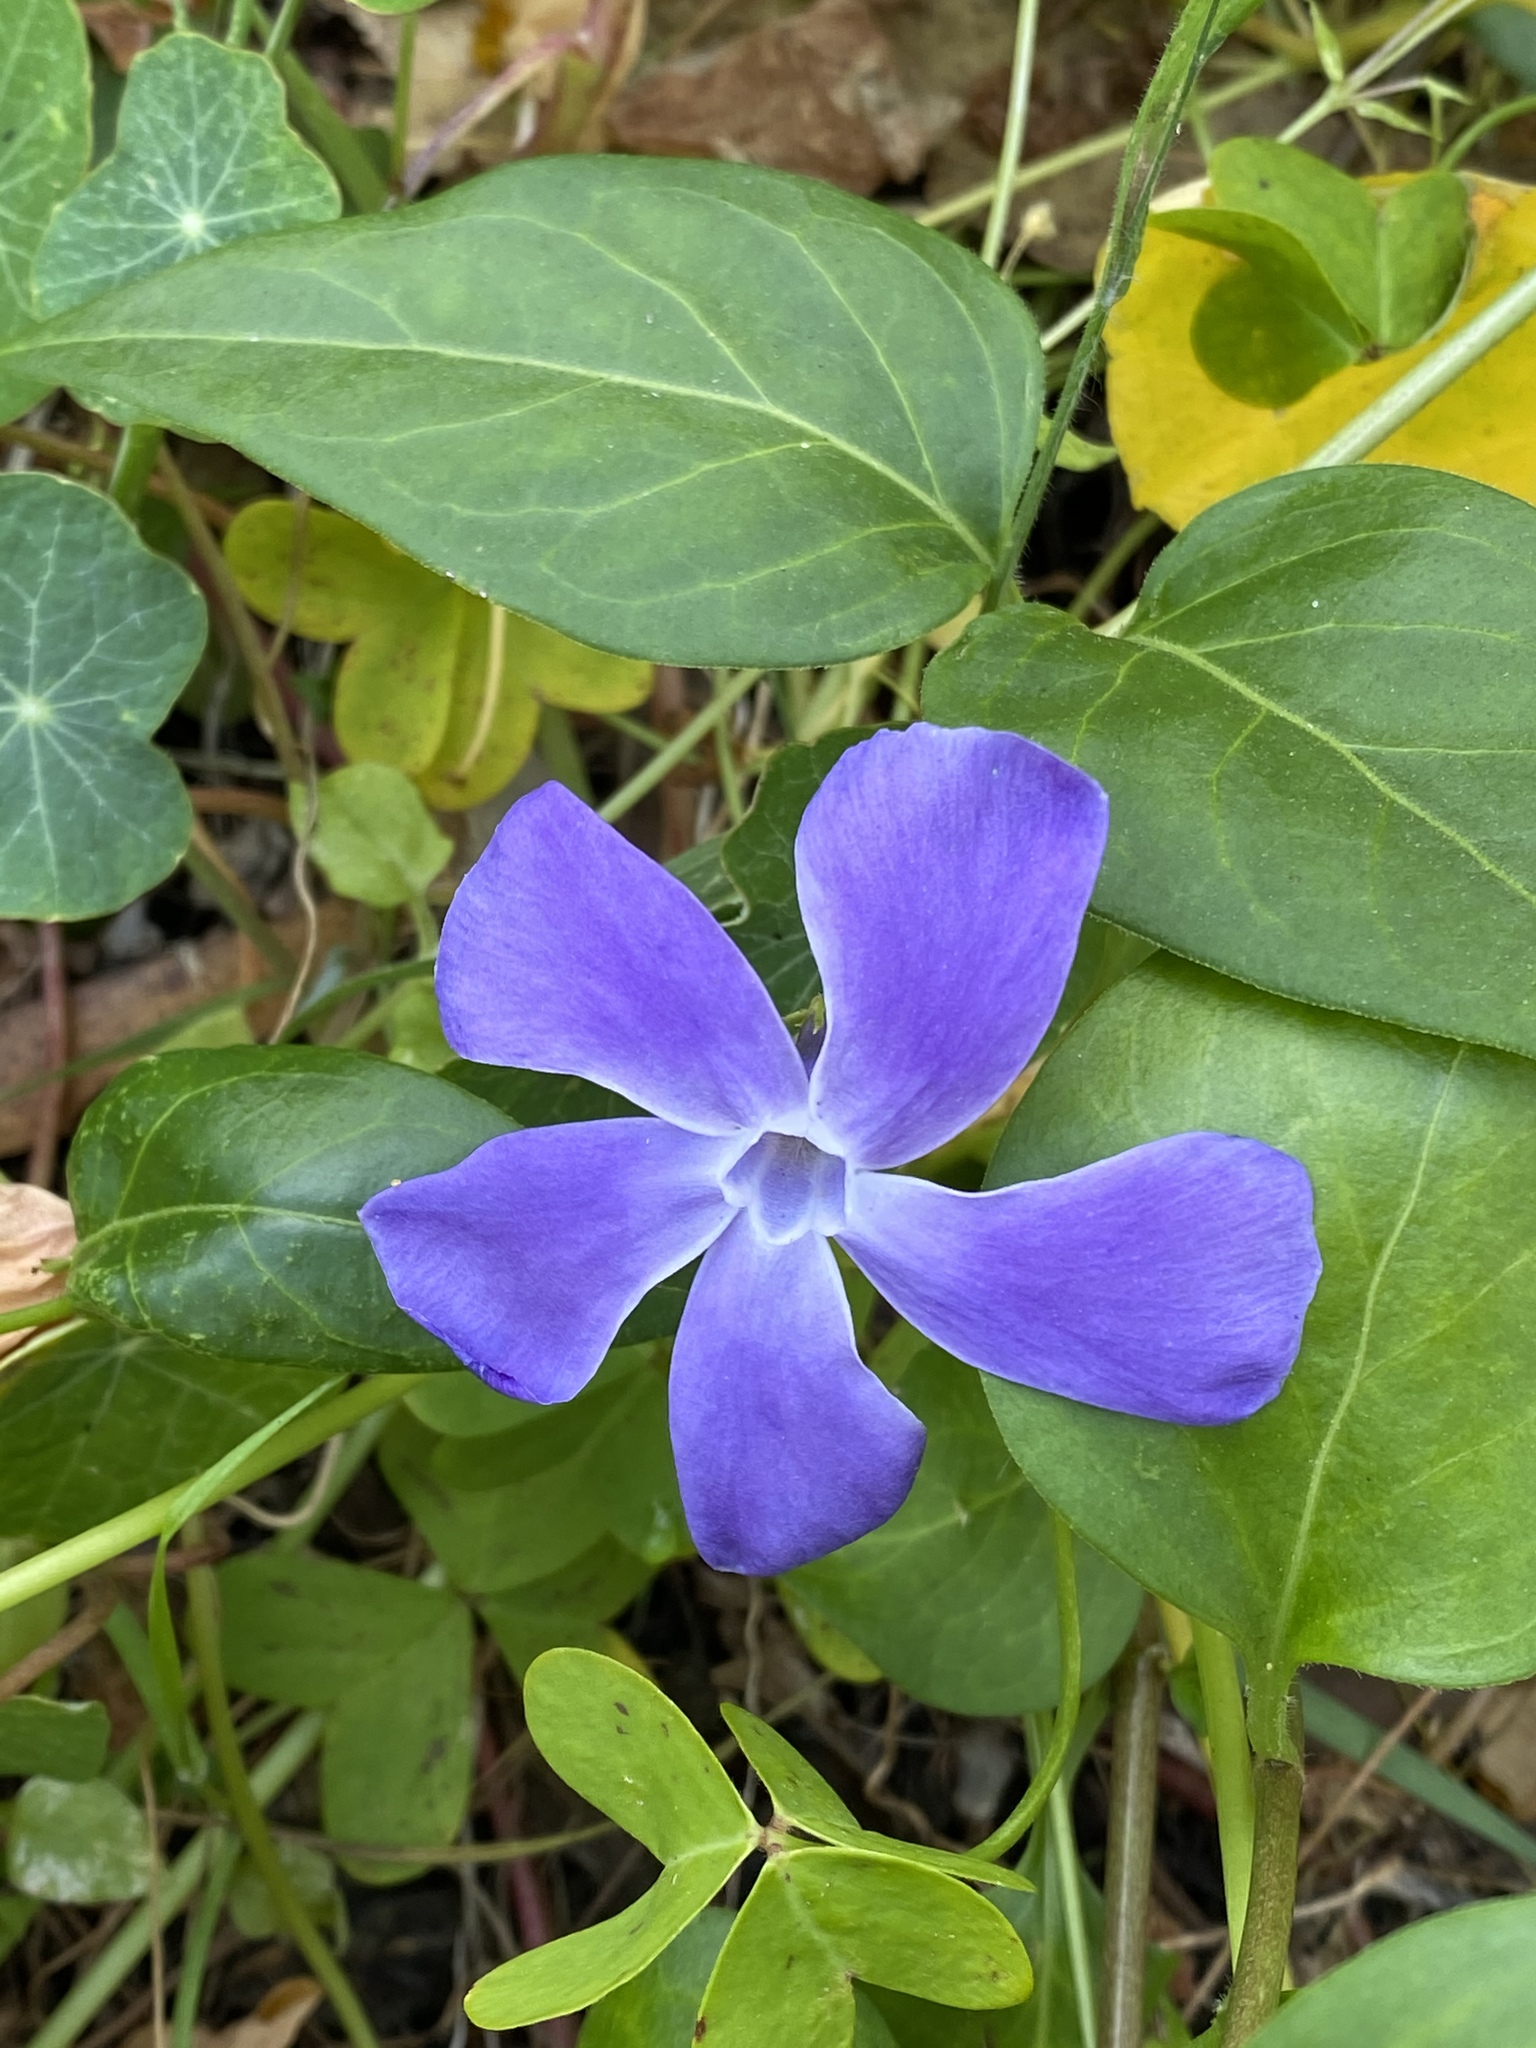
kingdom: Plantae
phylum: Tracheophyta
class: Magnoliopsida
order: Gentianales
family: Apocynaceae
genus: Vinca
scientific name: Vinca major
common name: Greater periwinkle
